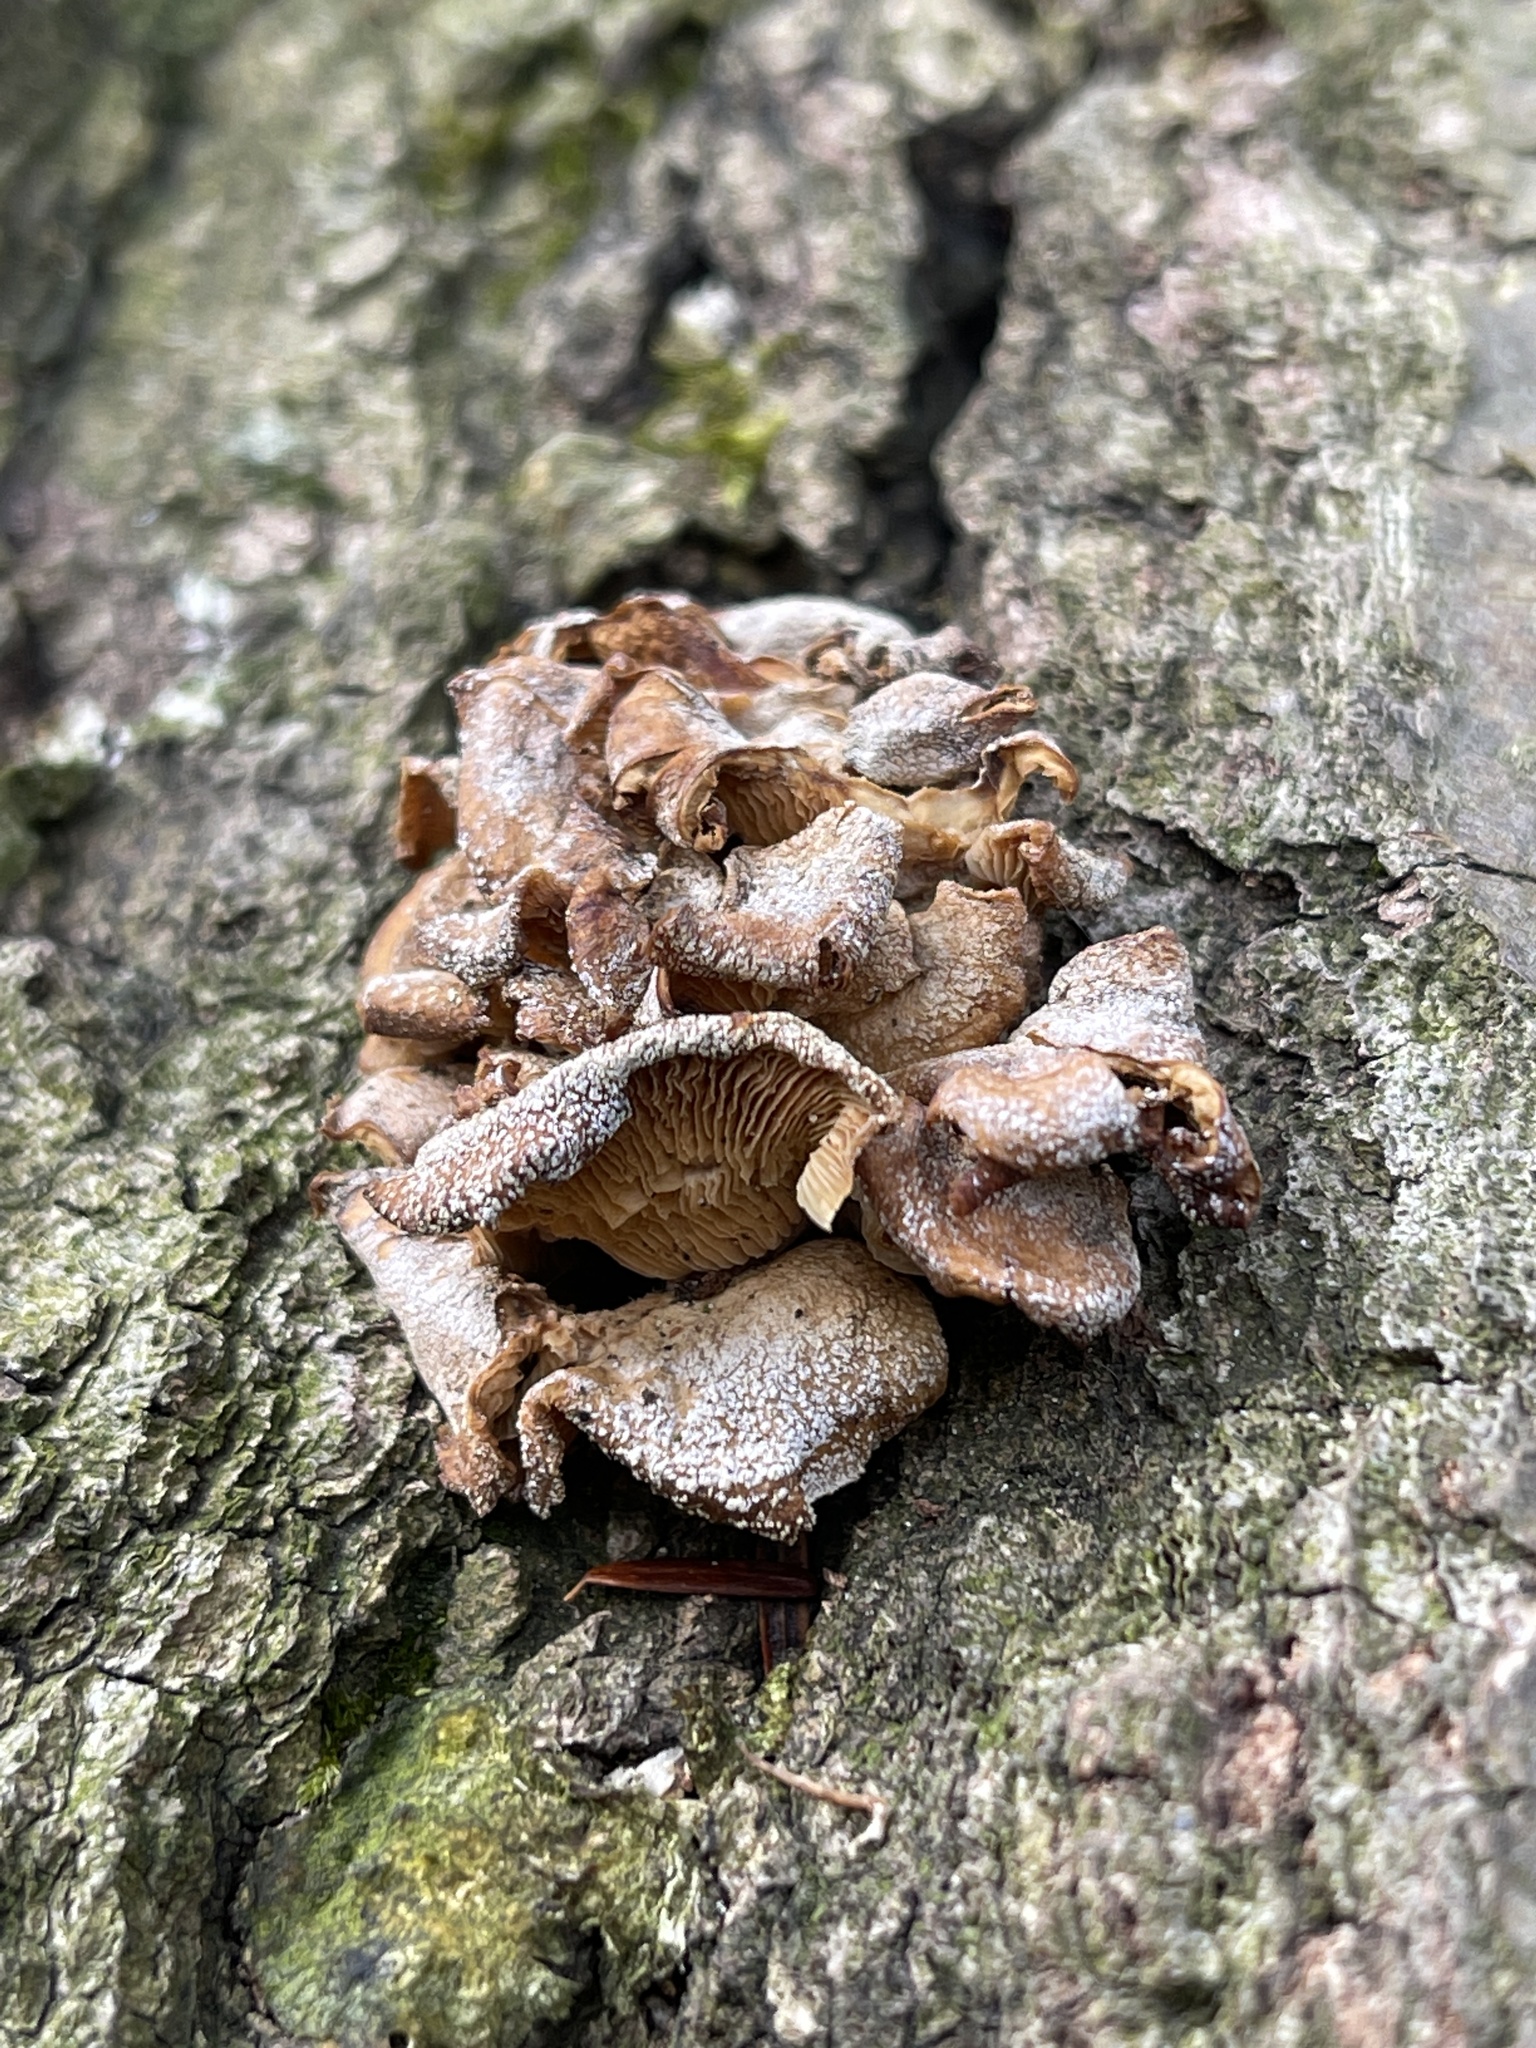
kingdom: Fungi
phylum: Basidiomycota
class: Agaricomycetes
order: Agaricales
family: Mycenaceae
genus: Panellus
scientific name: Panellus stipticus
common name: Bitter oysterling
